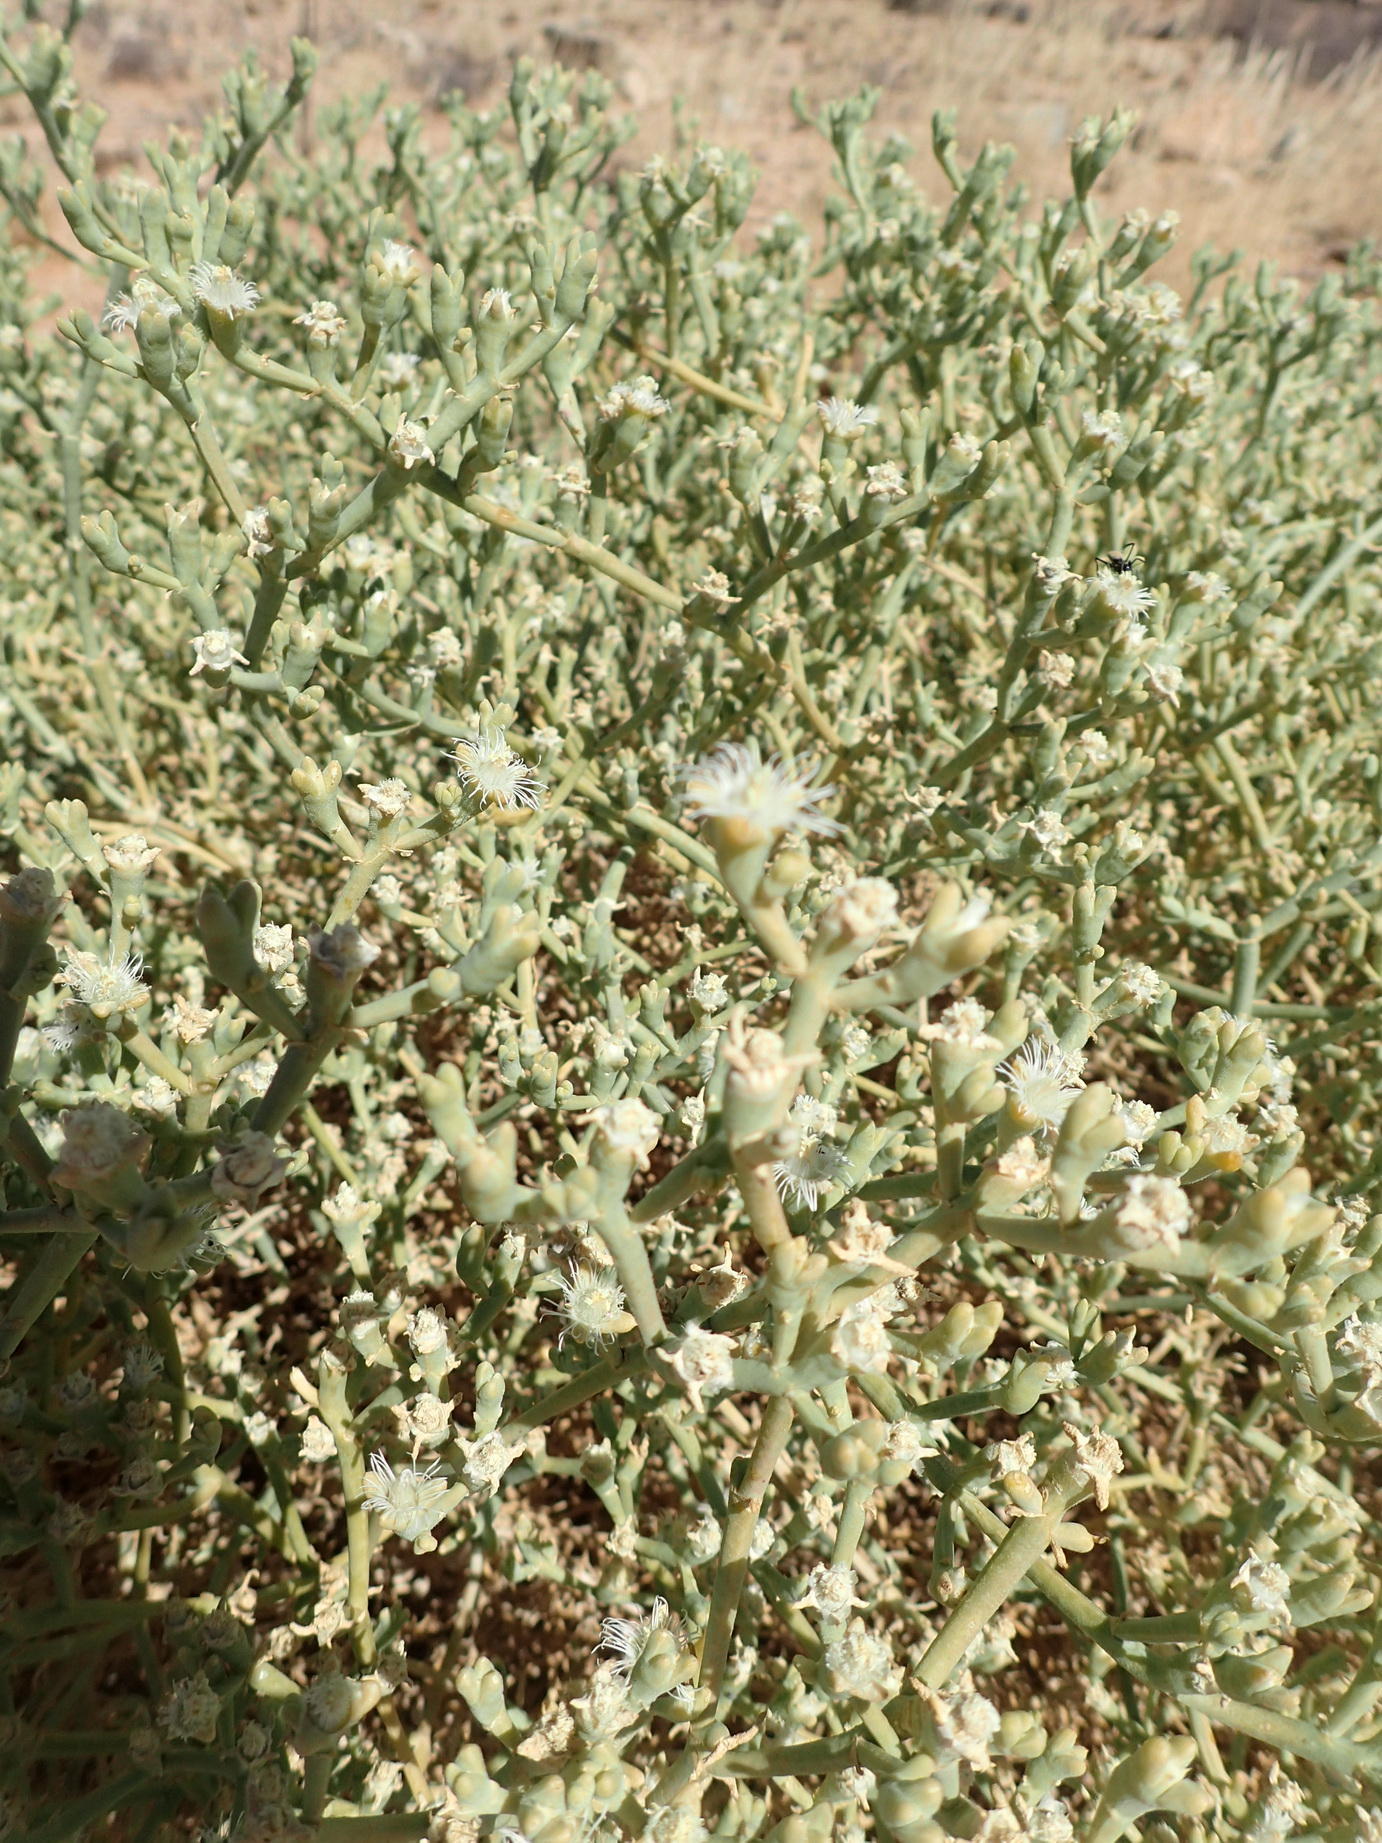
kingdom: Plantae
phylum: Tracheophyta
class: Magnoliopsida
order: Caryophyllales
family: Aizoaceae
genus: Mesembryanthemum
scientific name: Mesembryanthemum subnodosum
